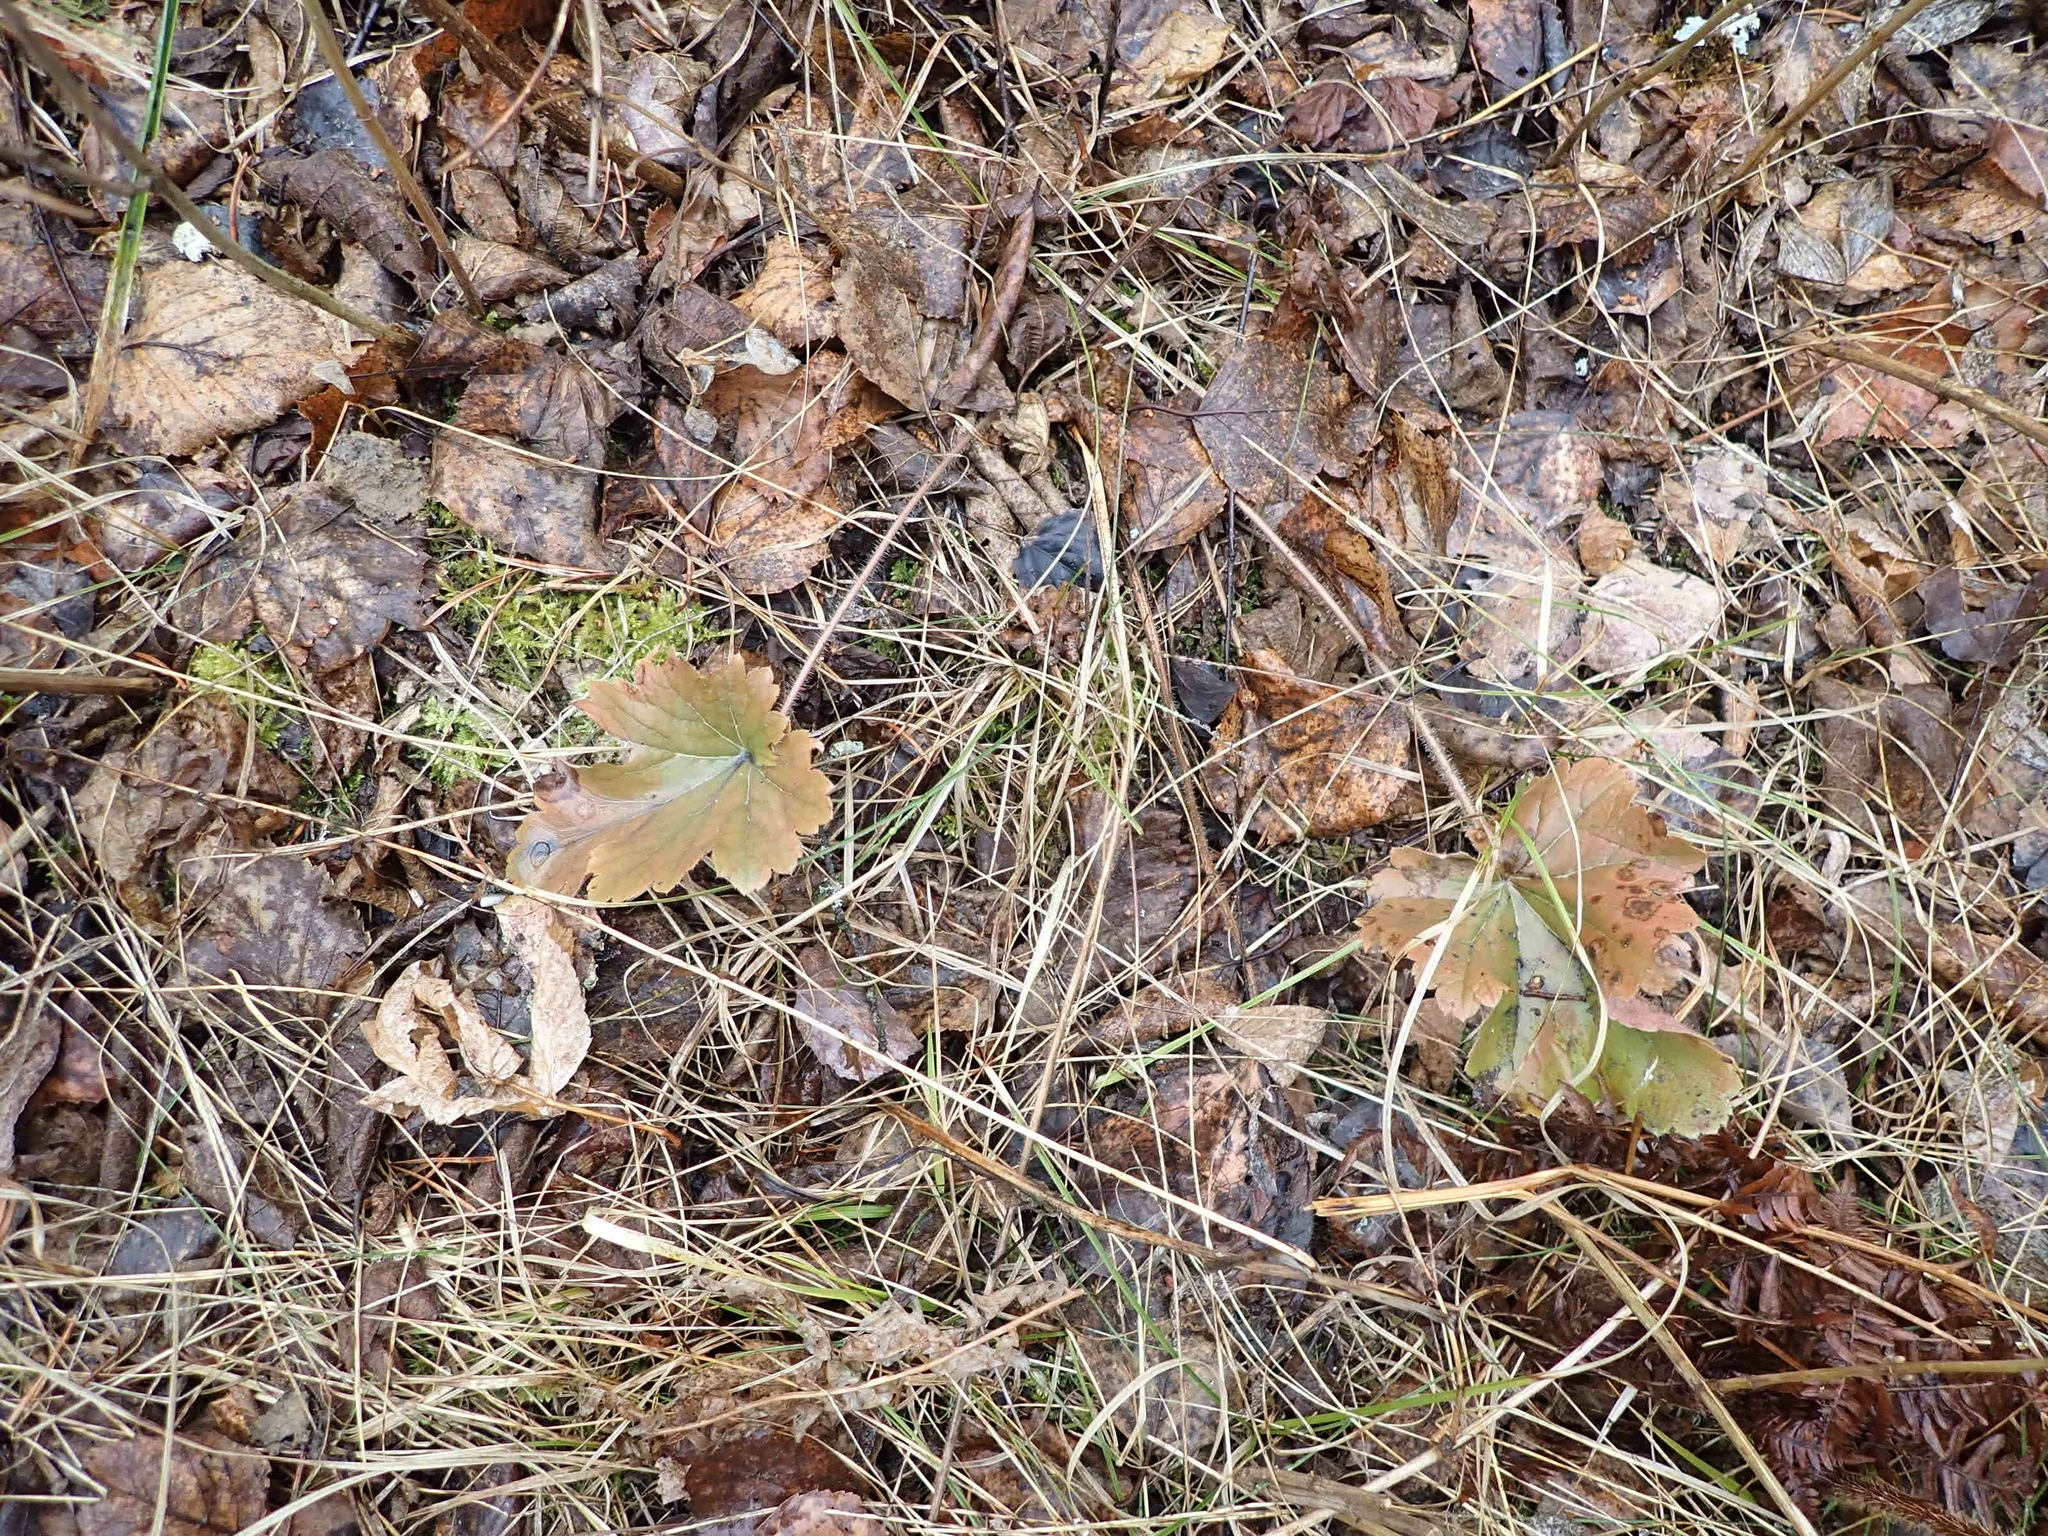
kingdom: Plantae
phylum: Tracheophyta
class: Magnoliopsida
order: Saxifragales
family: Saxifragaceae
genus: Heuchera
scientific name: Heuchera richardsonii
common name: Richardson's alumroot
